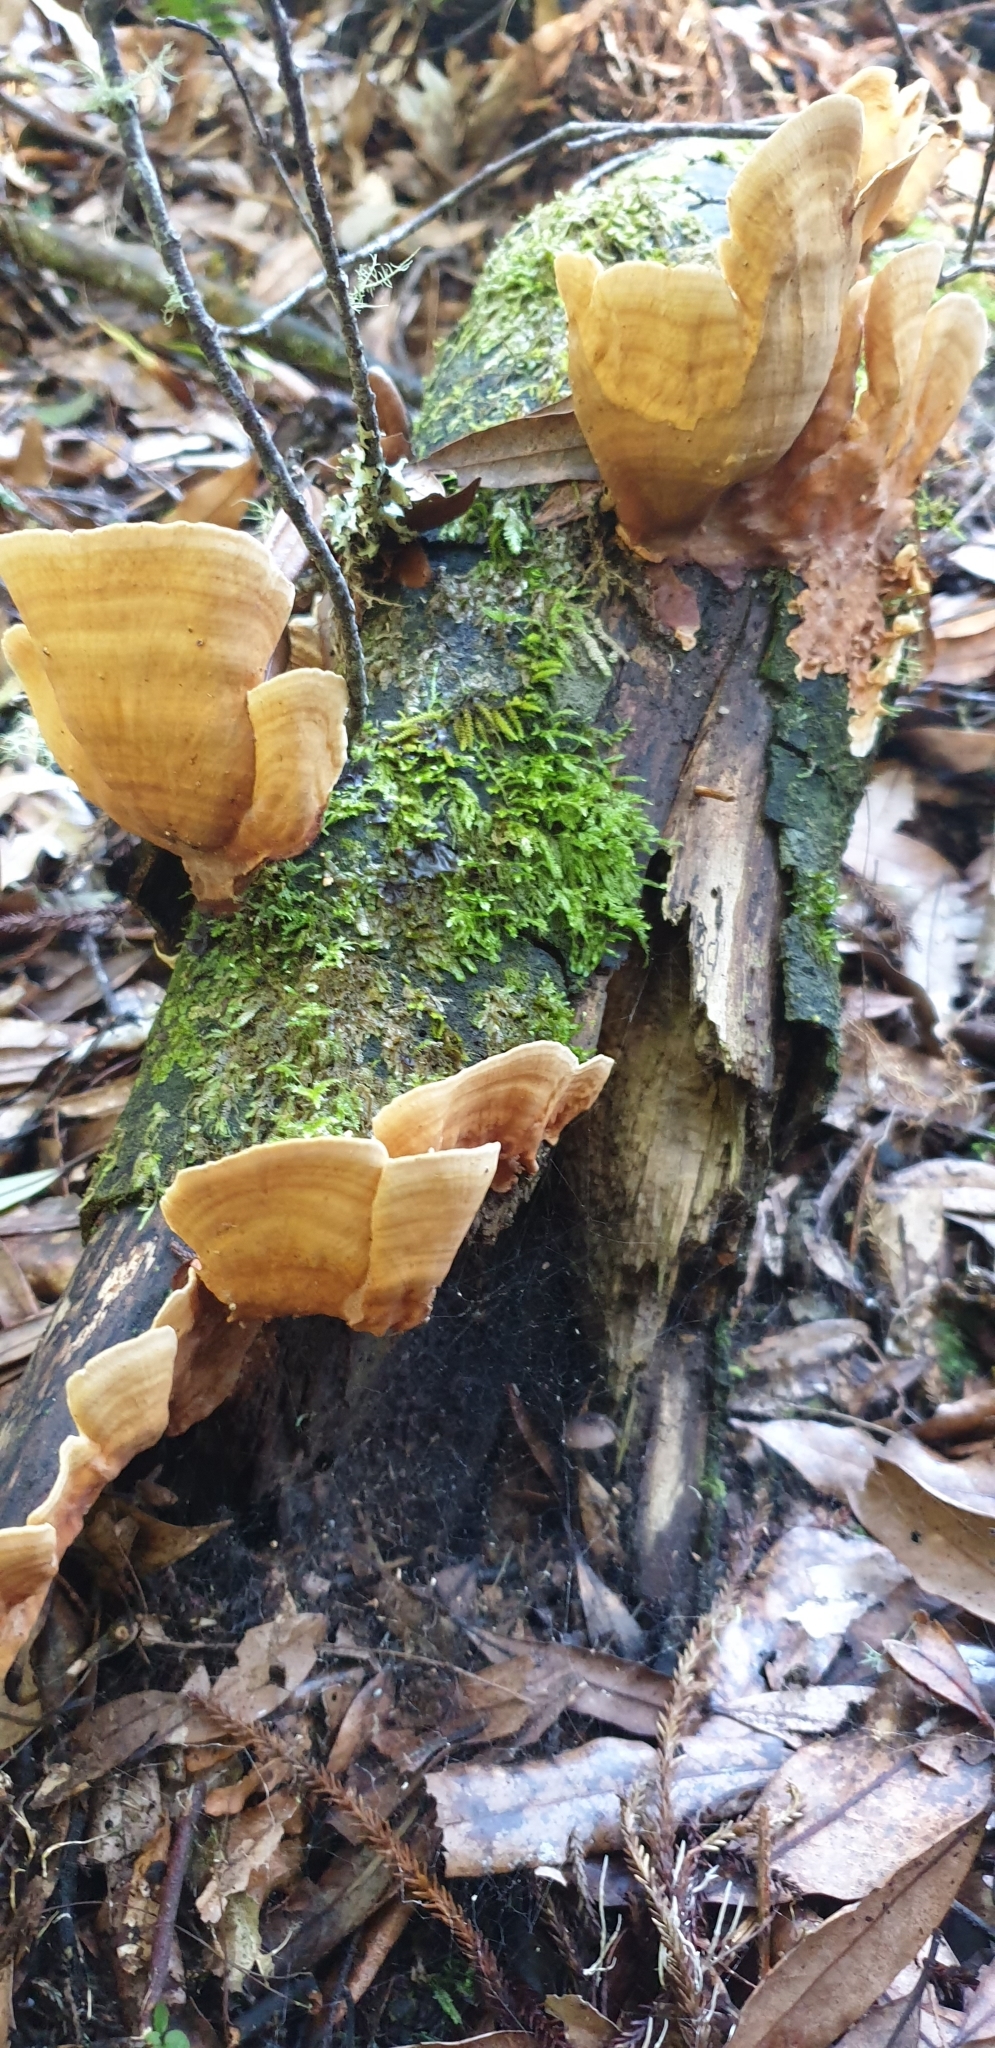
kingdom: Fungi
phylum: Basidiomycota
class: Agaricomycetes
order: Russulales
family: Stereaceae
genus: Stereum
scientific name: Stereum versicolor
